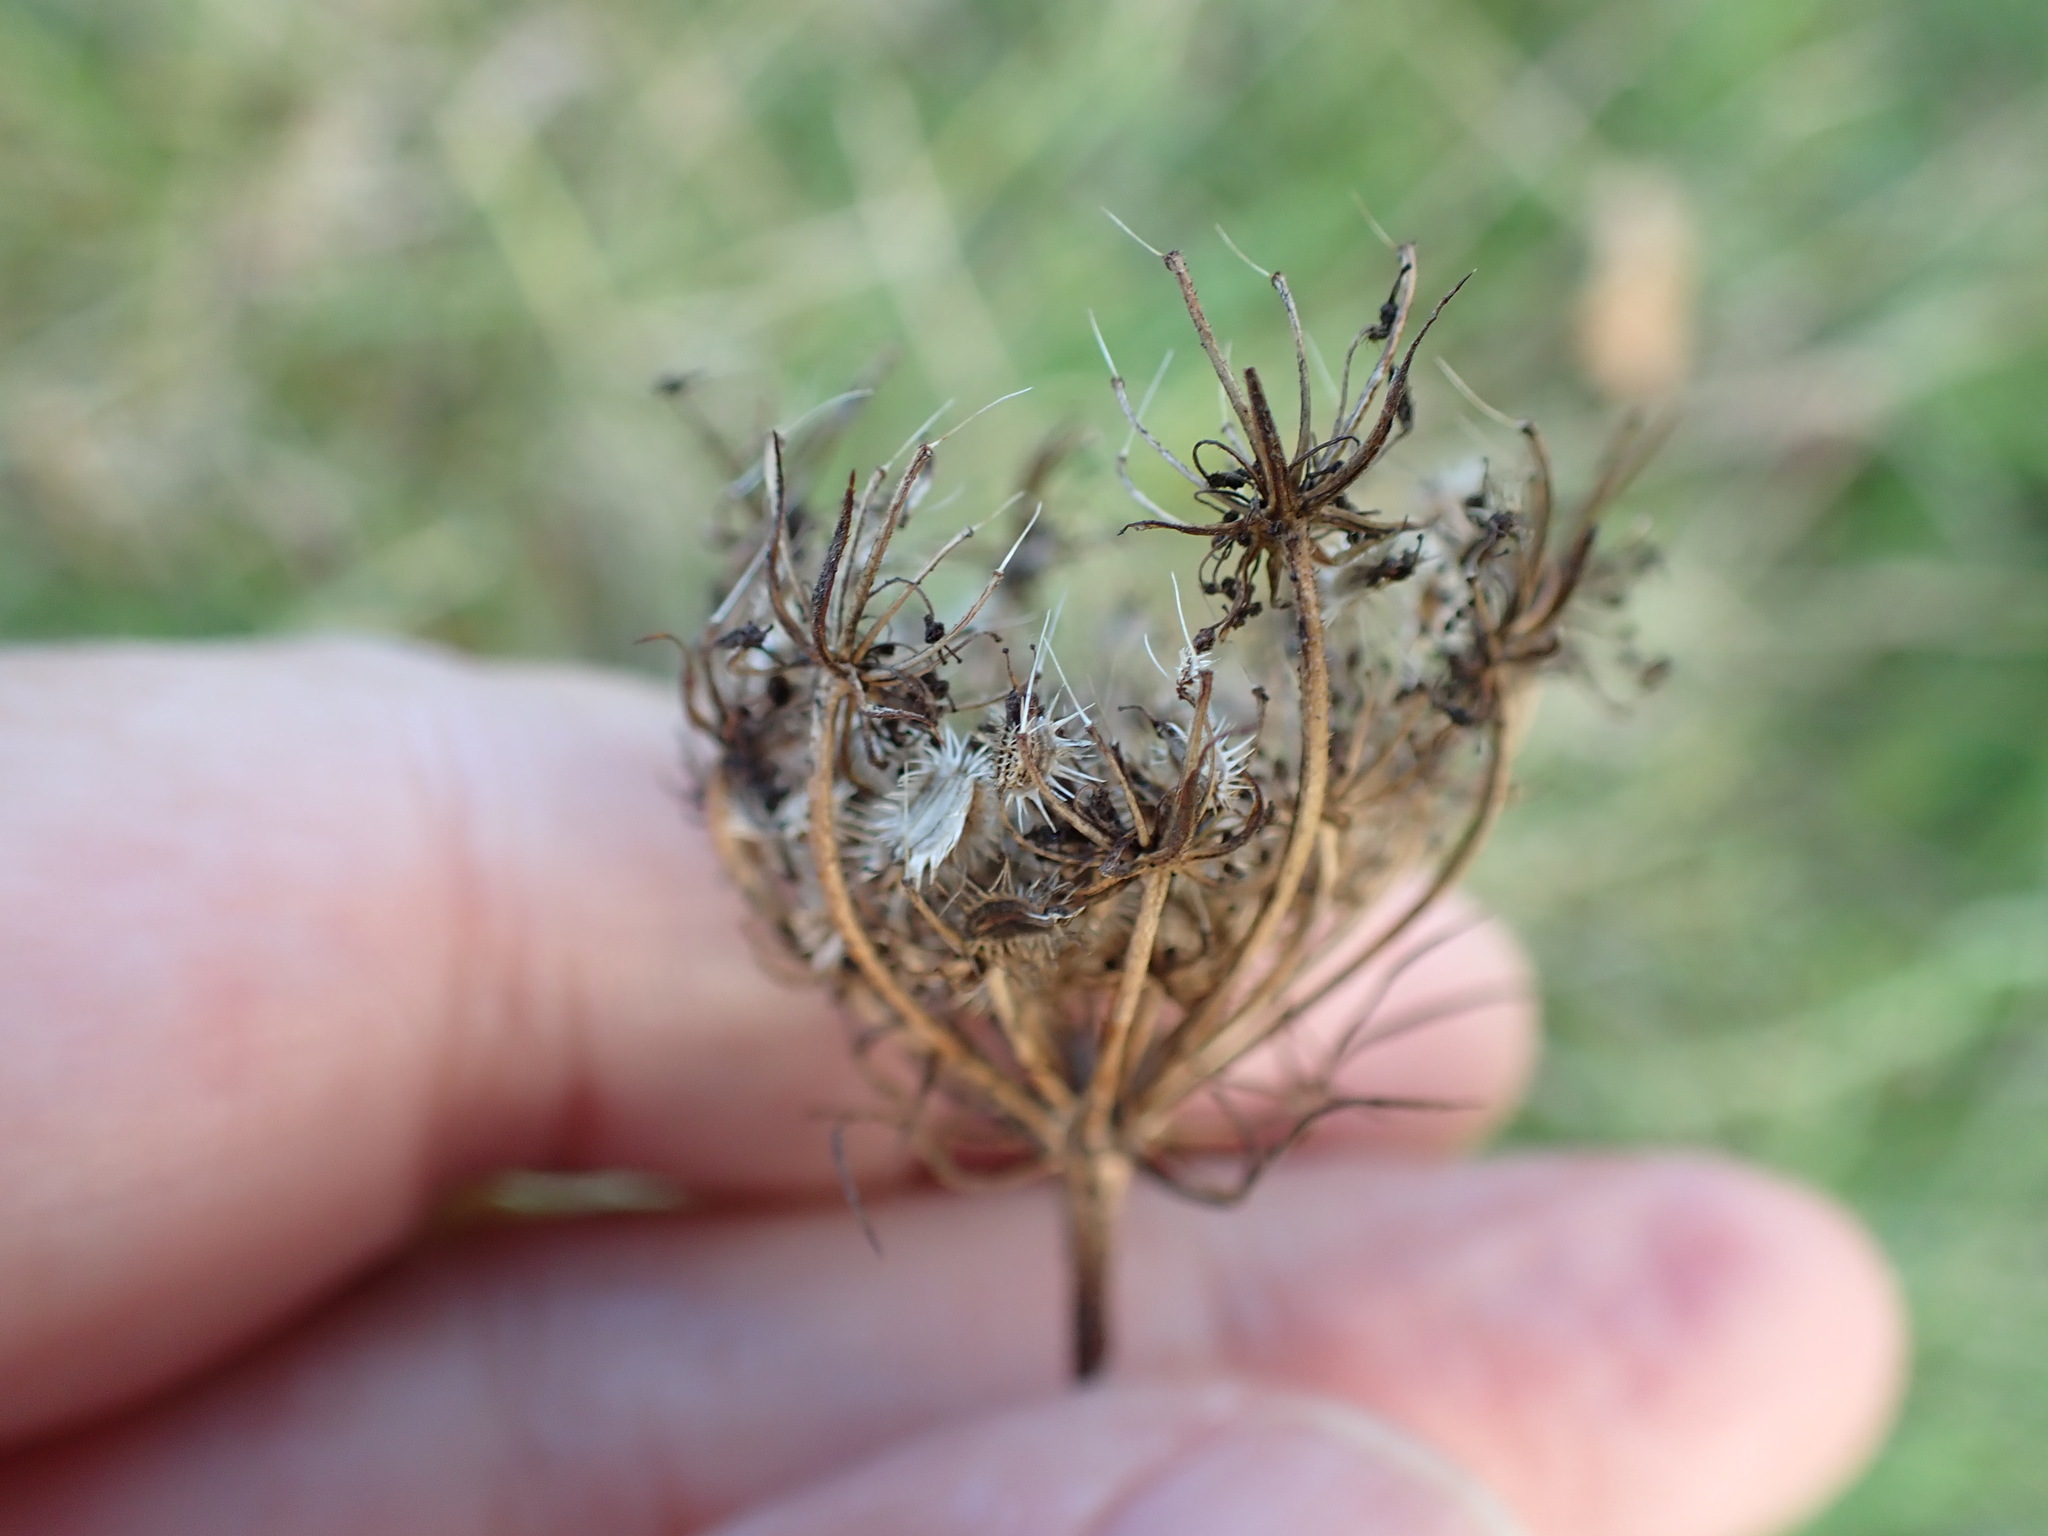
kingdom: Plantae
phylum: Tracheophyta
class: Magnoliopsida
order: Apiales
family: Apiaceae
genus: Daucus
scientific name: Daucus carota
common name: Wild carrot
